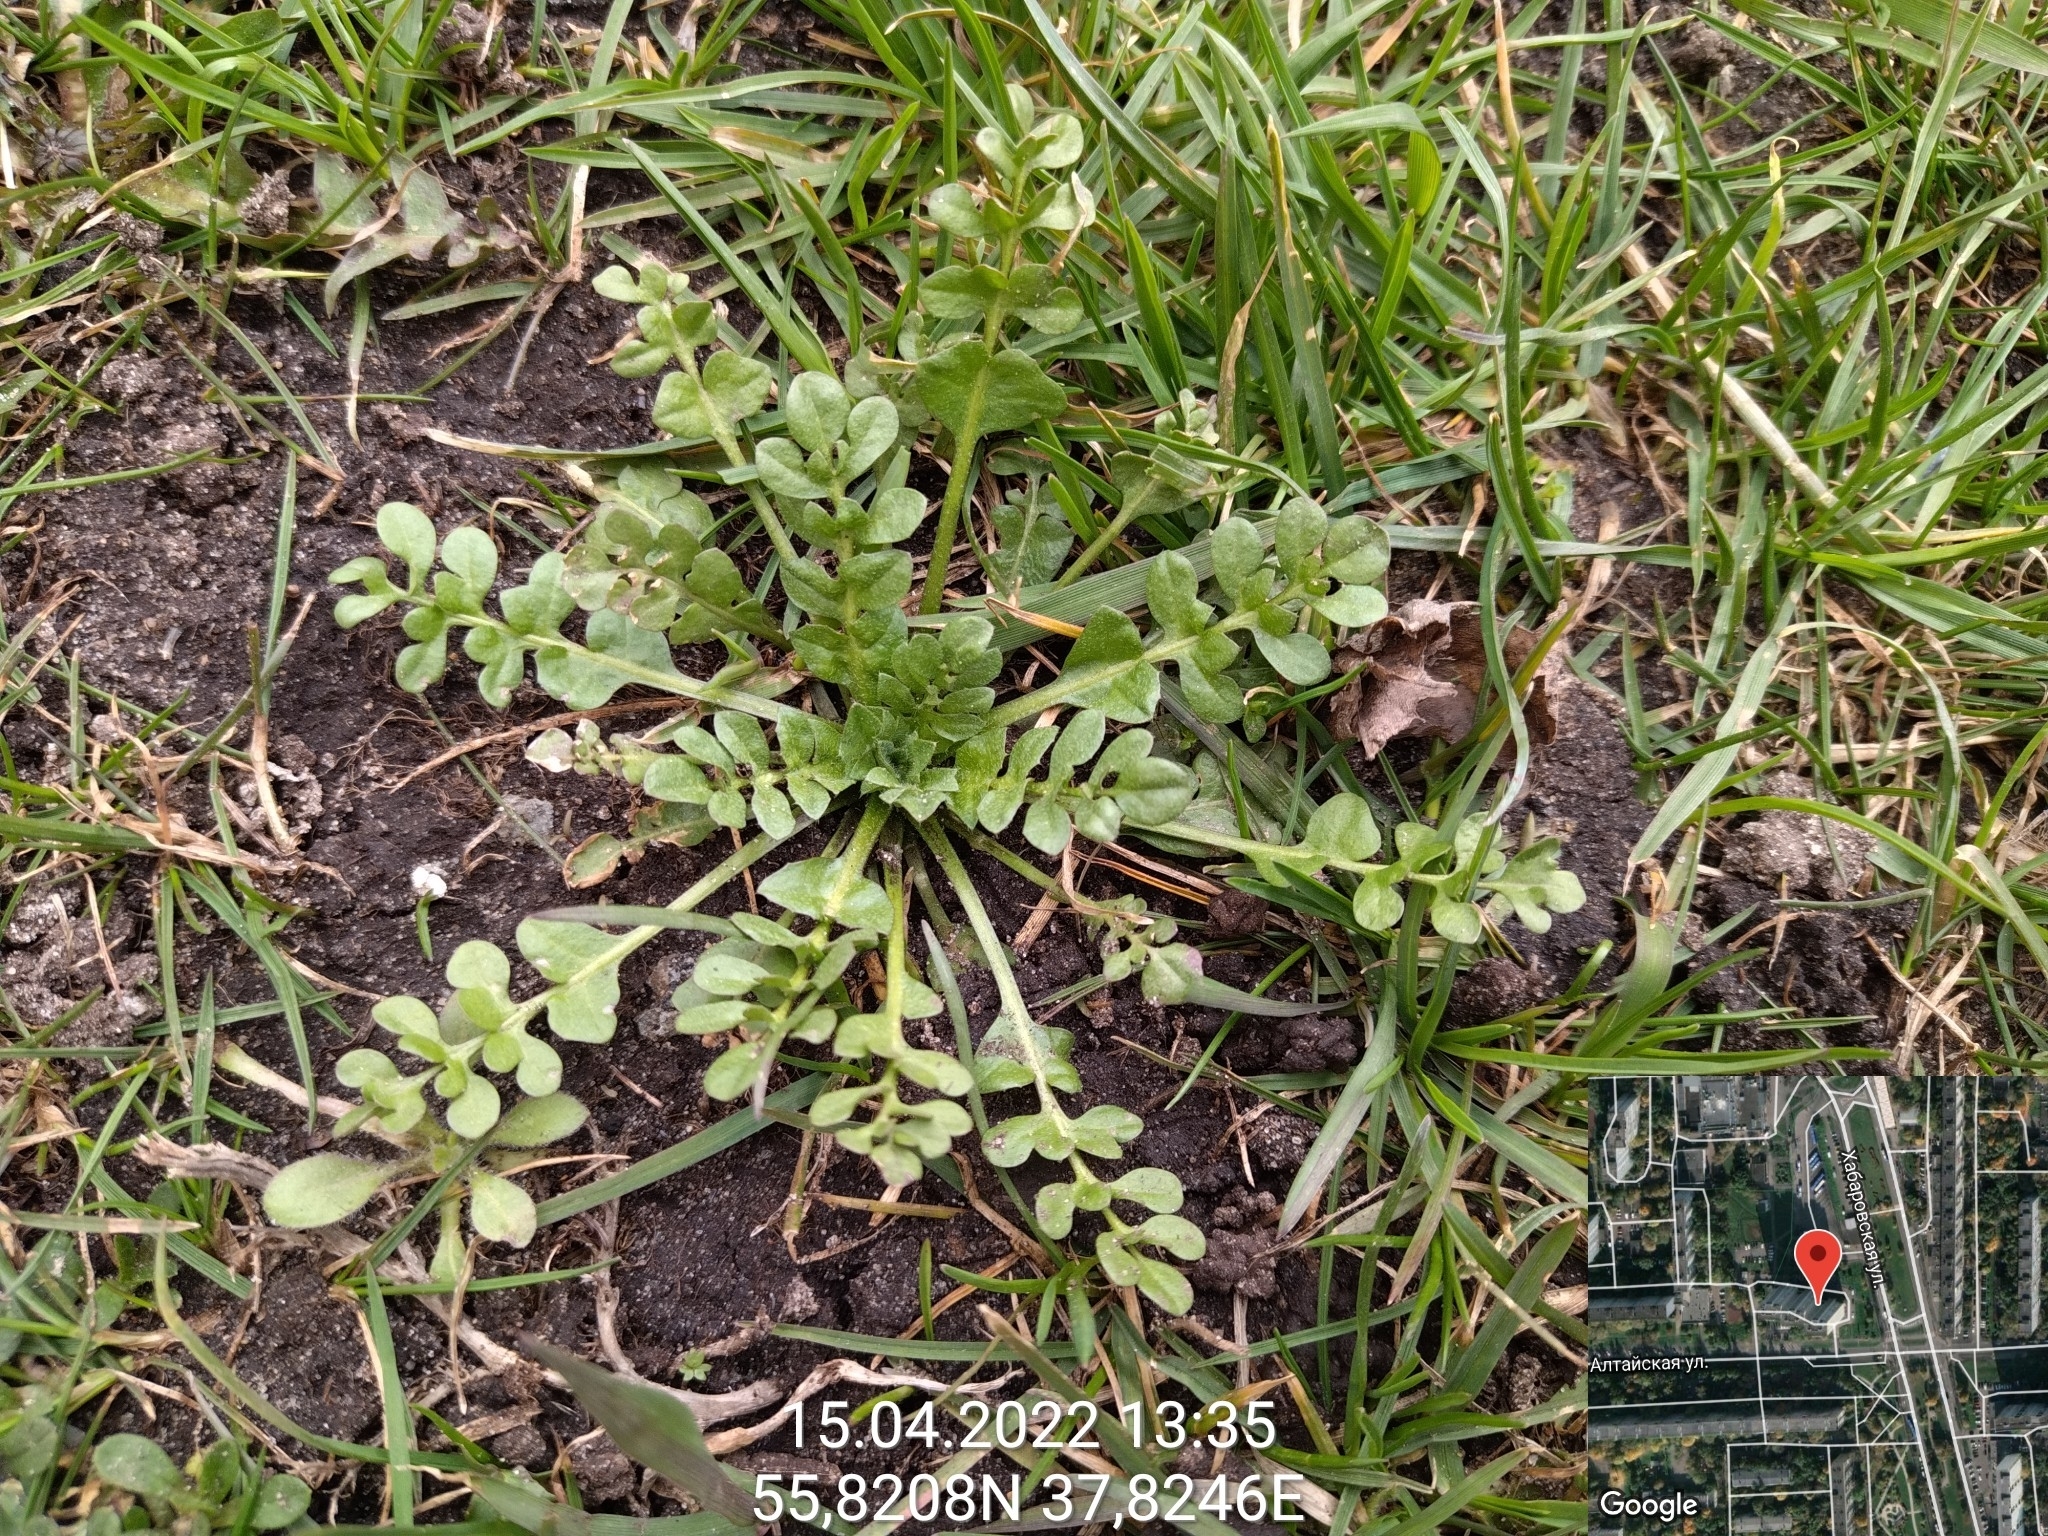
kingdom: Plantae
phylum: Tracheophyta
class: Magnoliopsida
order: Brassicales
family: Brassicaceae
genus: Capsella
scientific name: Capsella bursa-pastoris
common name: Shepherd's purse
